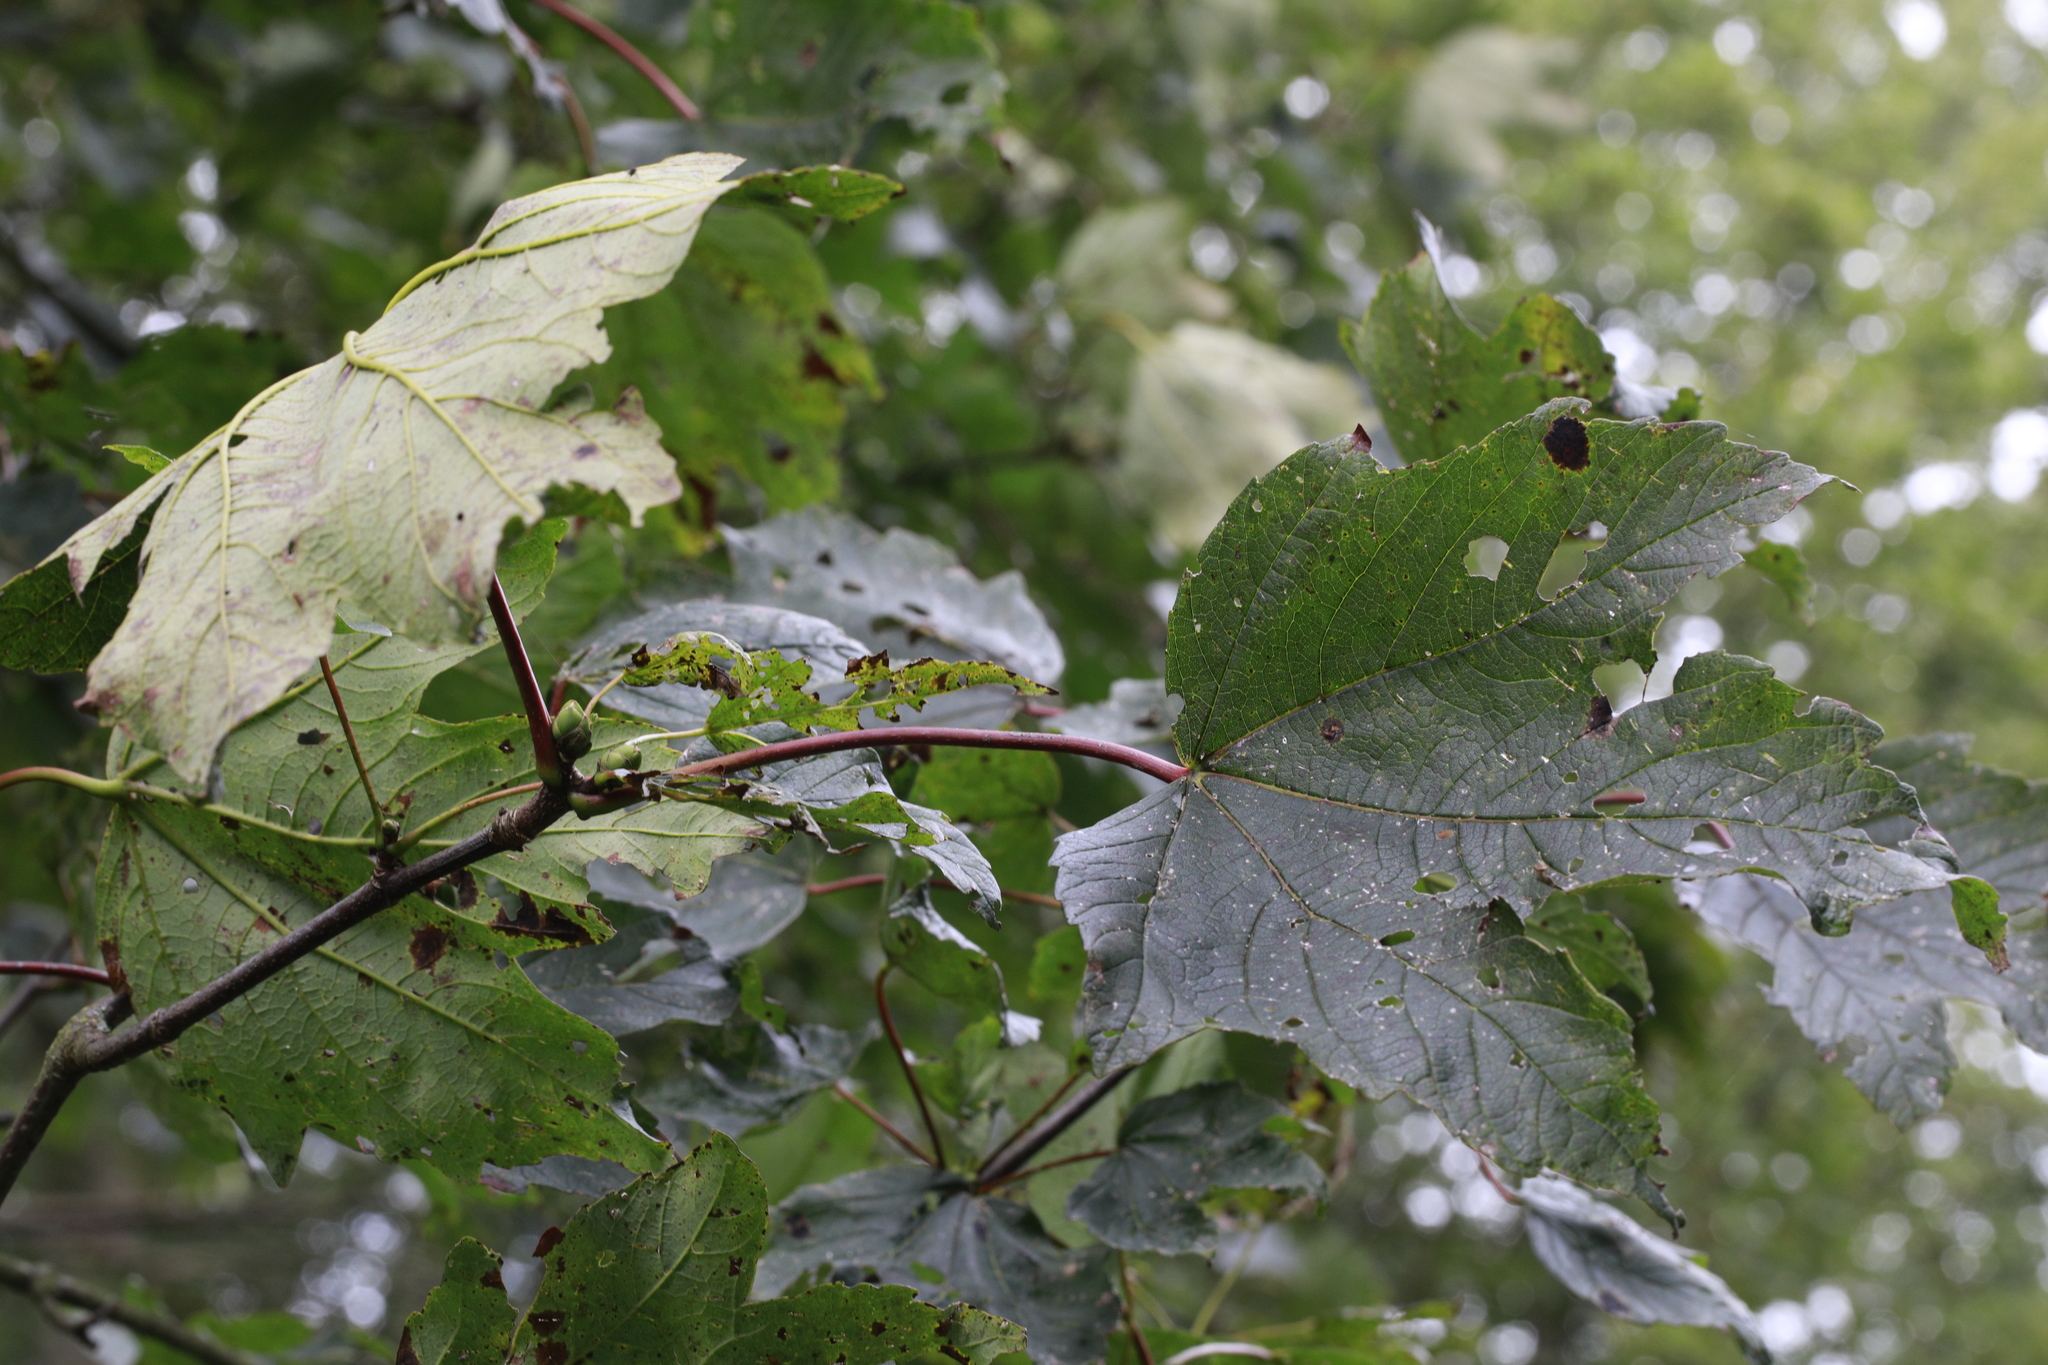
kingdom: Plantae
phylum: Tracheophyta
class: Magnoliopsida
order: Sapindales
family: Sapindaceae
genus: Acer
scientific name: Acer pseudoplatanus
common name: Sycamore
